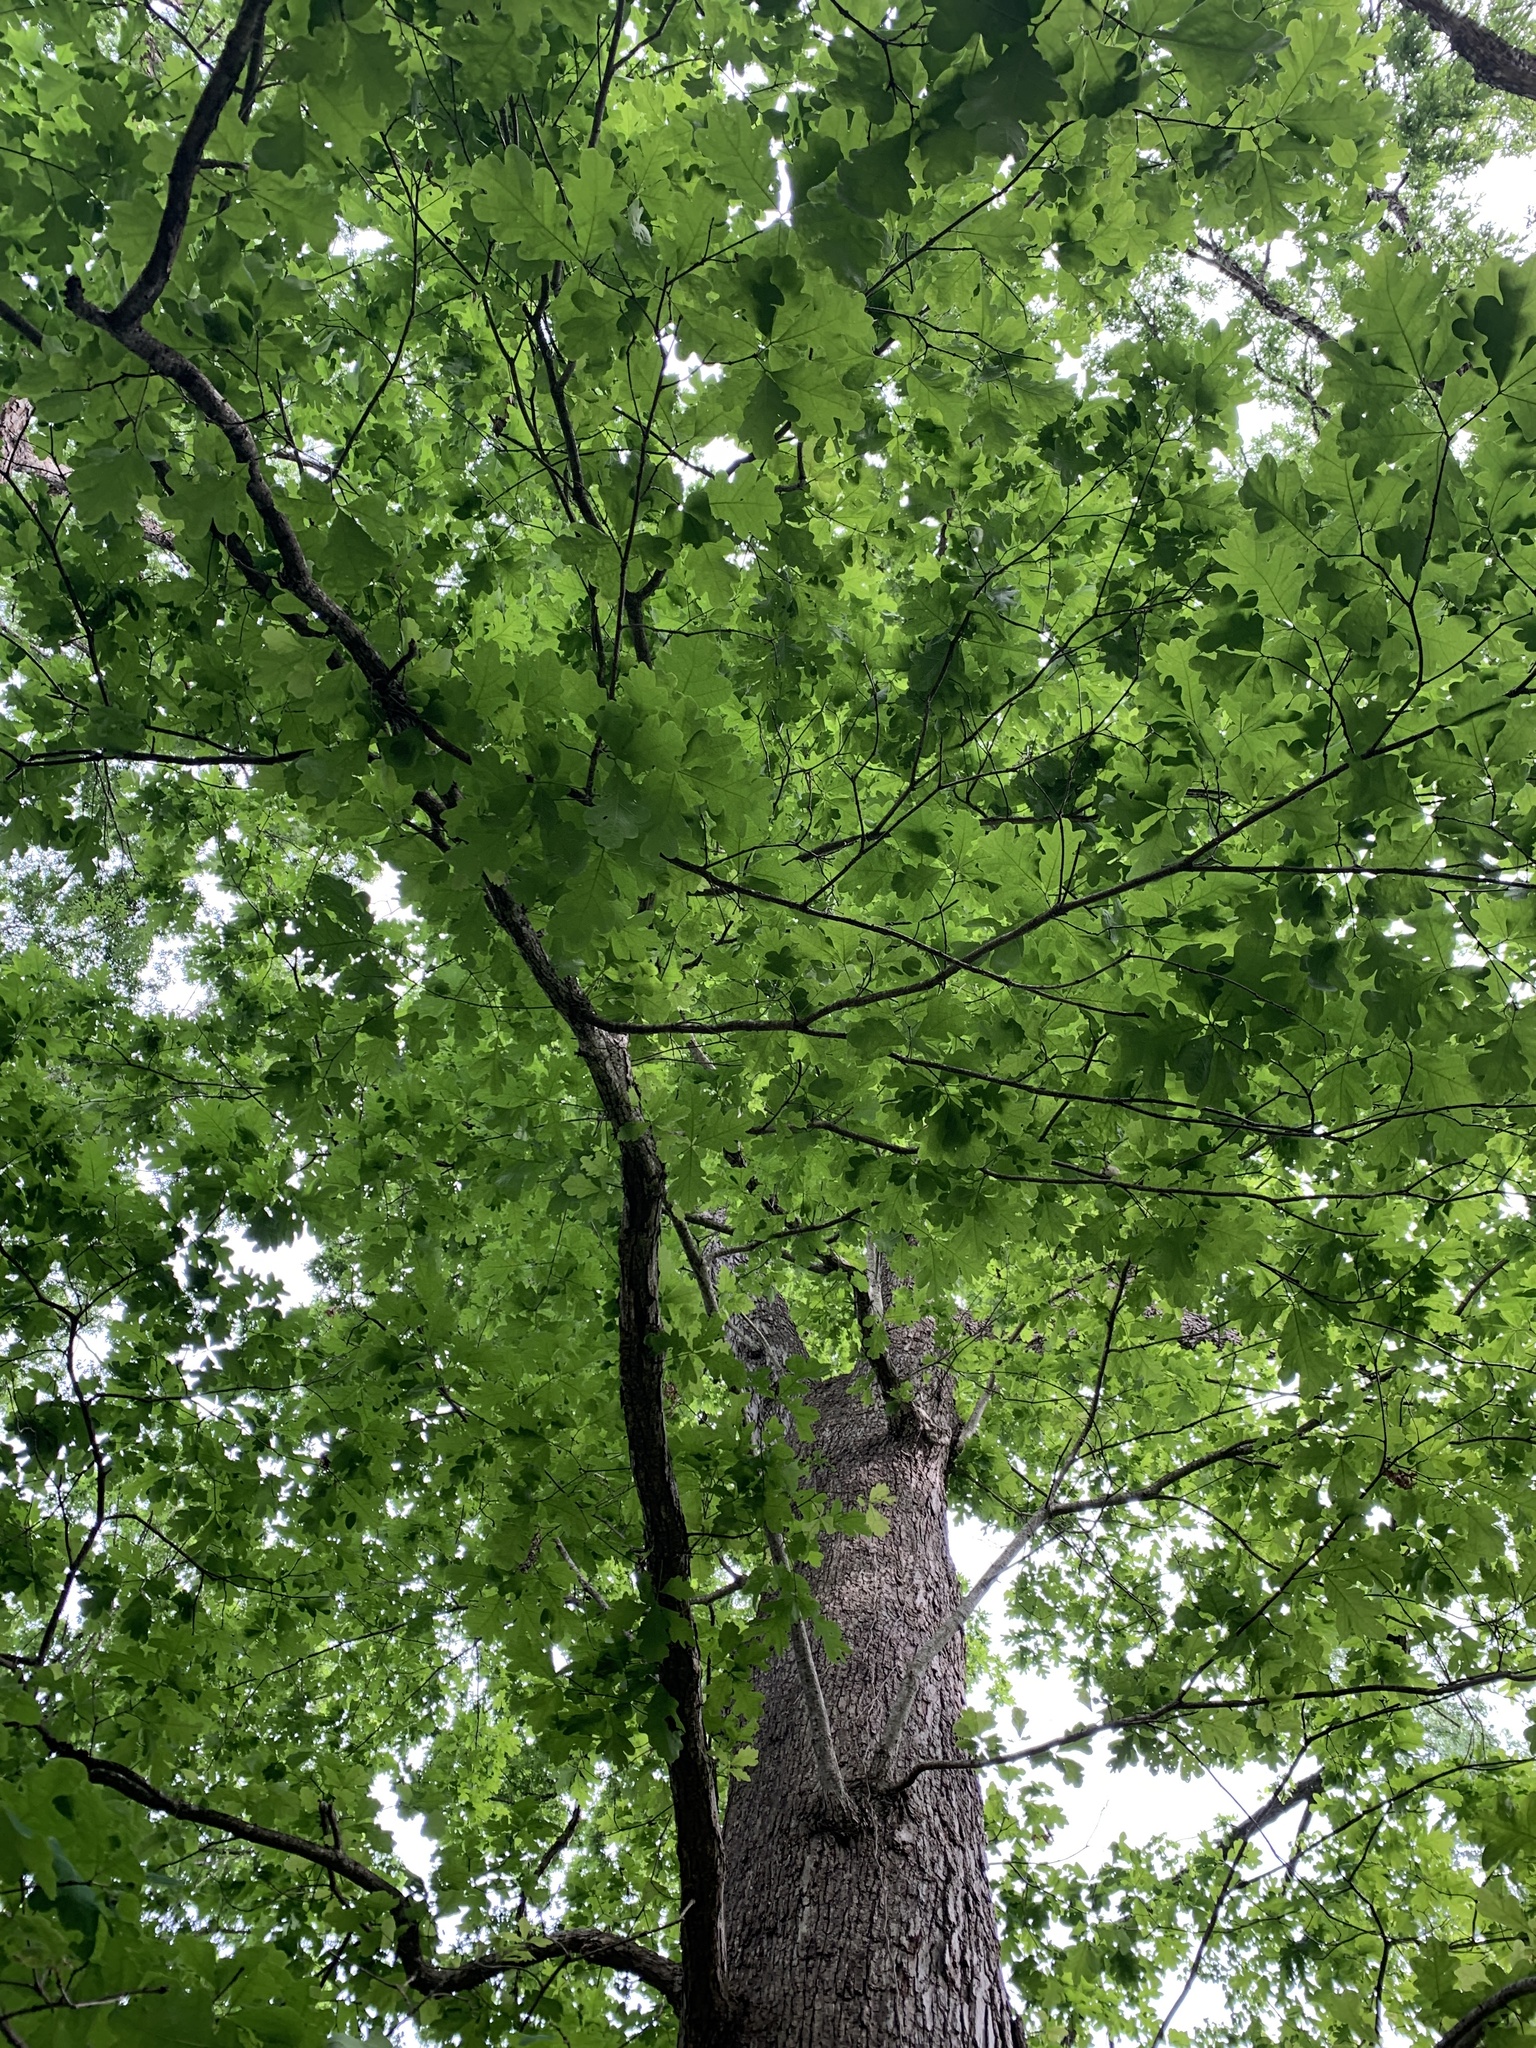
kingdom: Plantae
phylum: Tracheophyta
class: Magnoliopsida
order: Fagales
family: Fagaceae
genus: Quercus
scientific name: Quercus alba
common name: White oak
